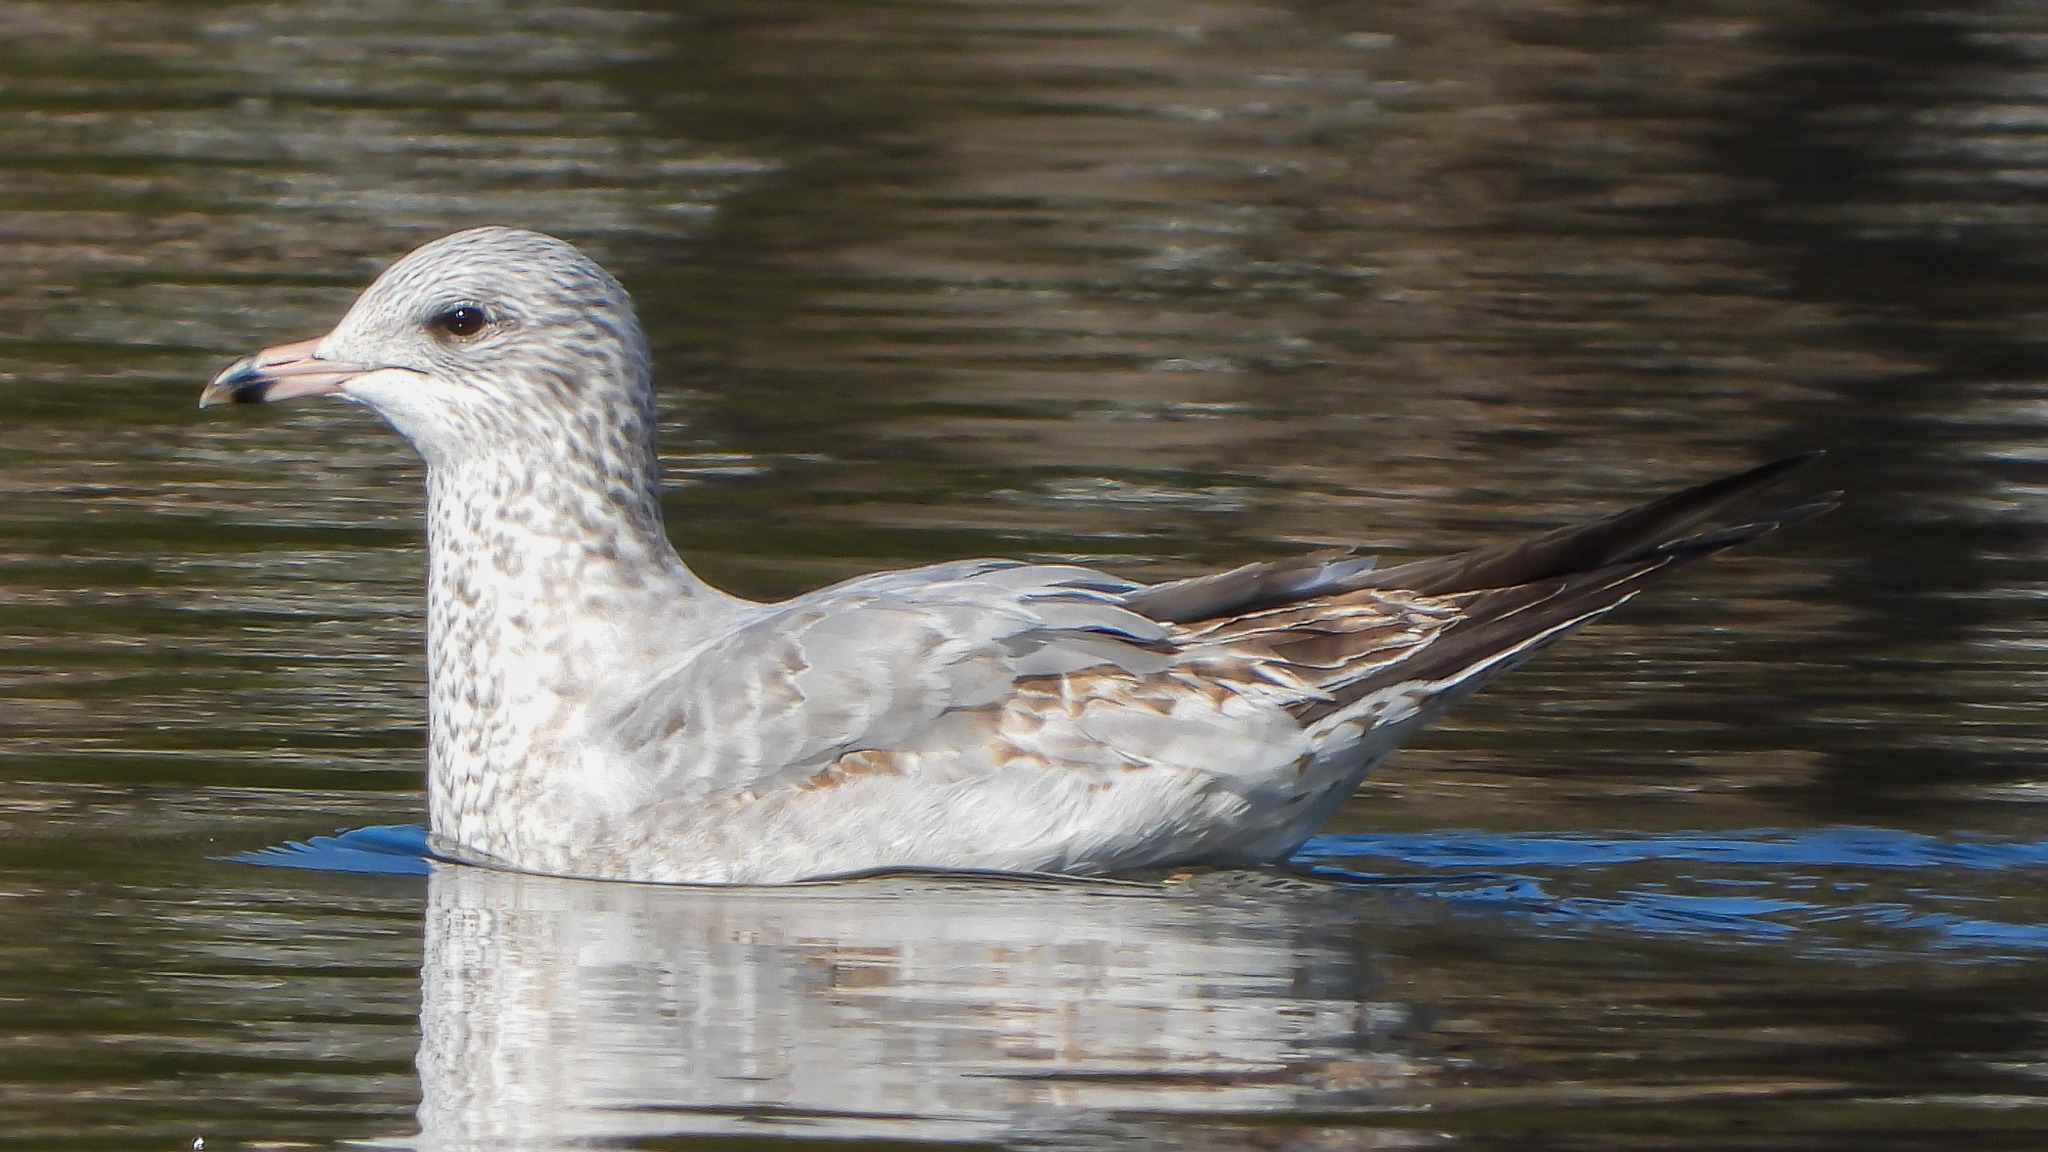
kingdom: Animalia
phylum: Chordata
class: Aves
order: Charadriiformes
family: Laridae
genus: Larus
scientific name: Larus delawarensis
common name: Ring-billed gull
